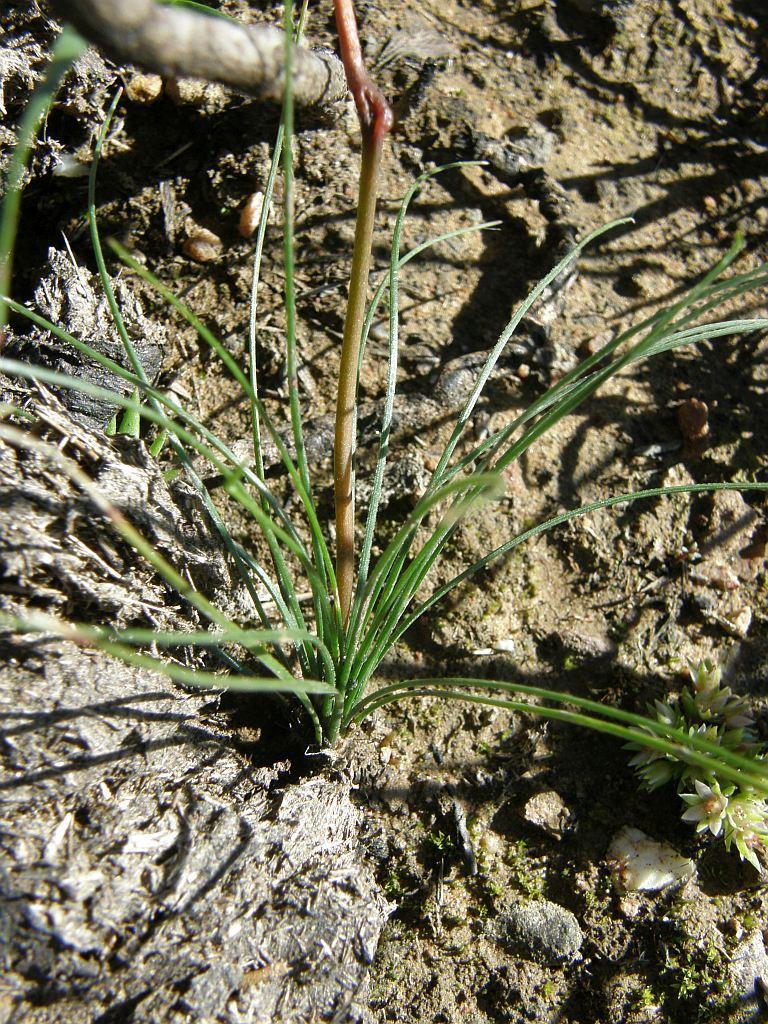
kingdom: Plantae
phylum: Tracheophyta
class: Liliopsida
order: Asparagales
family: Asphodelaceae
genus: Bulbinella
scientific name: Bulbinella triquetra
